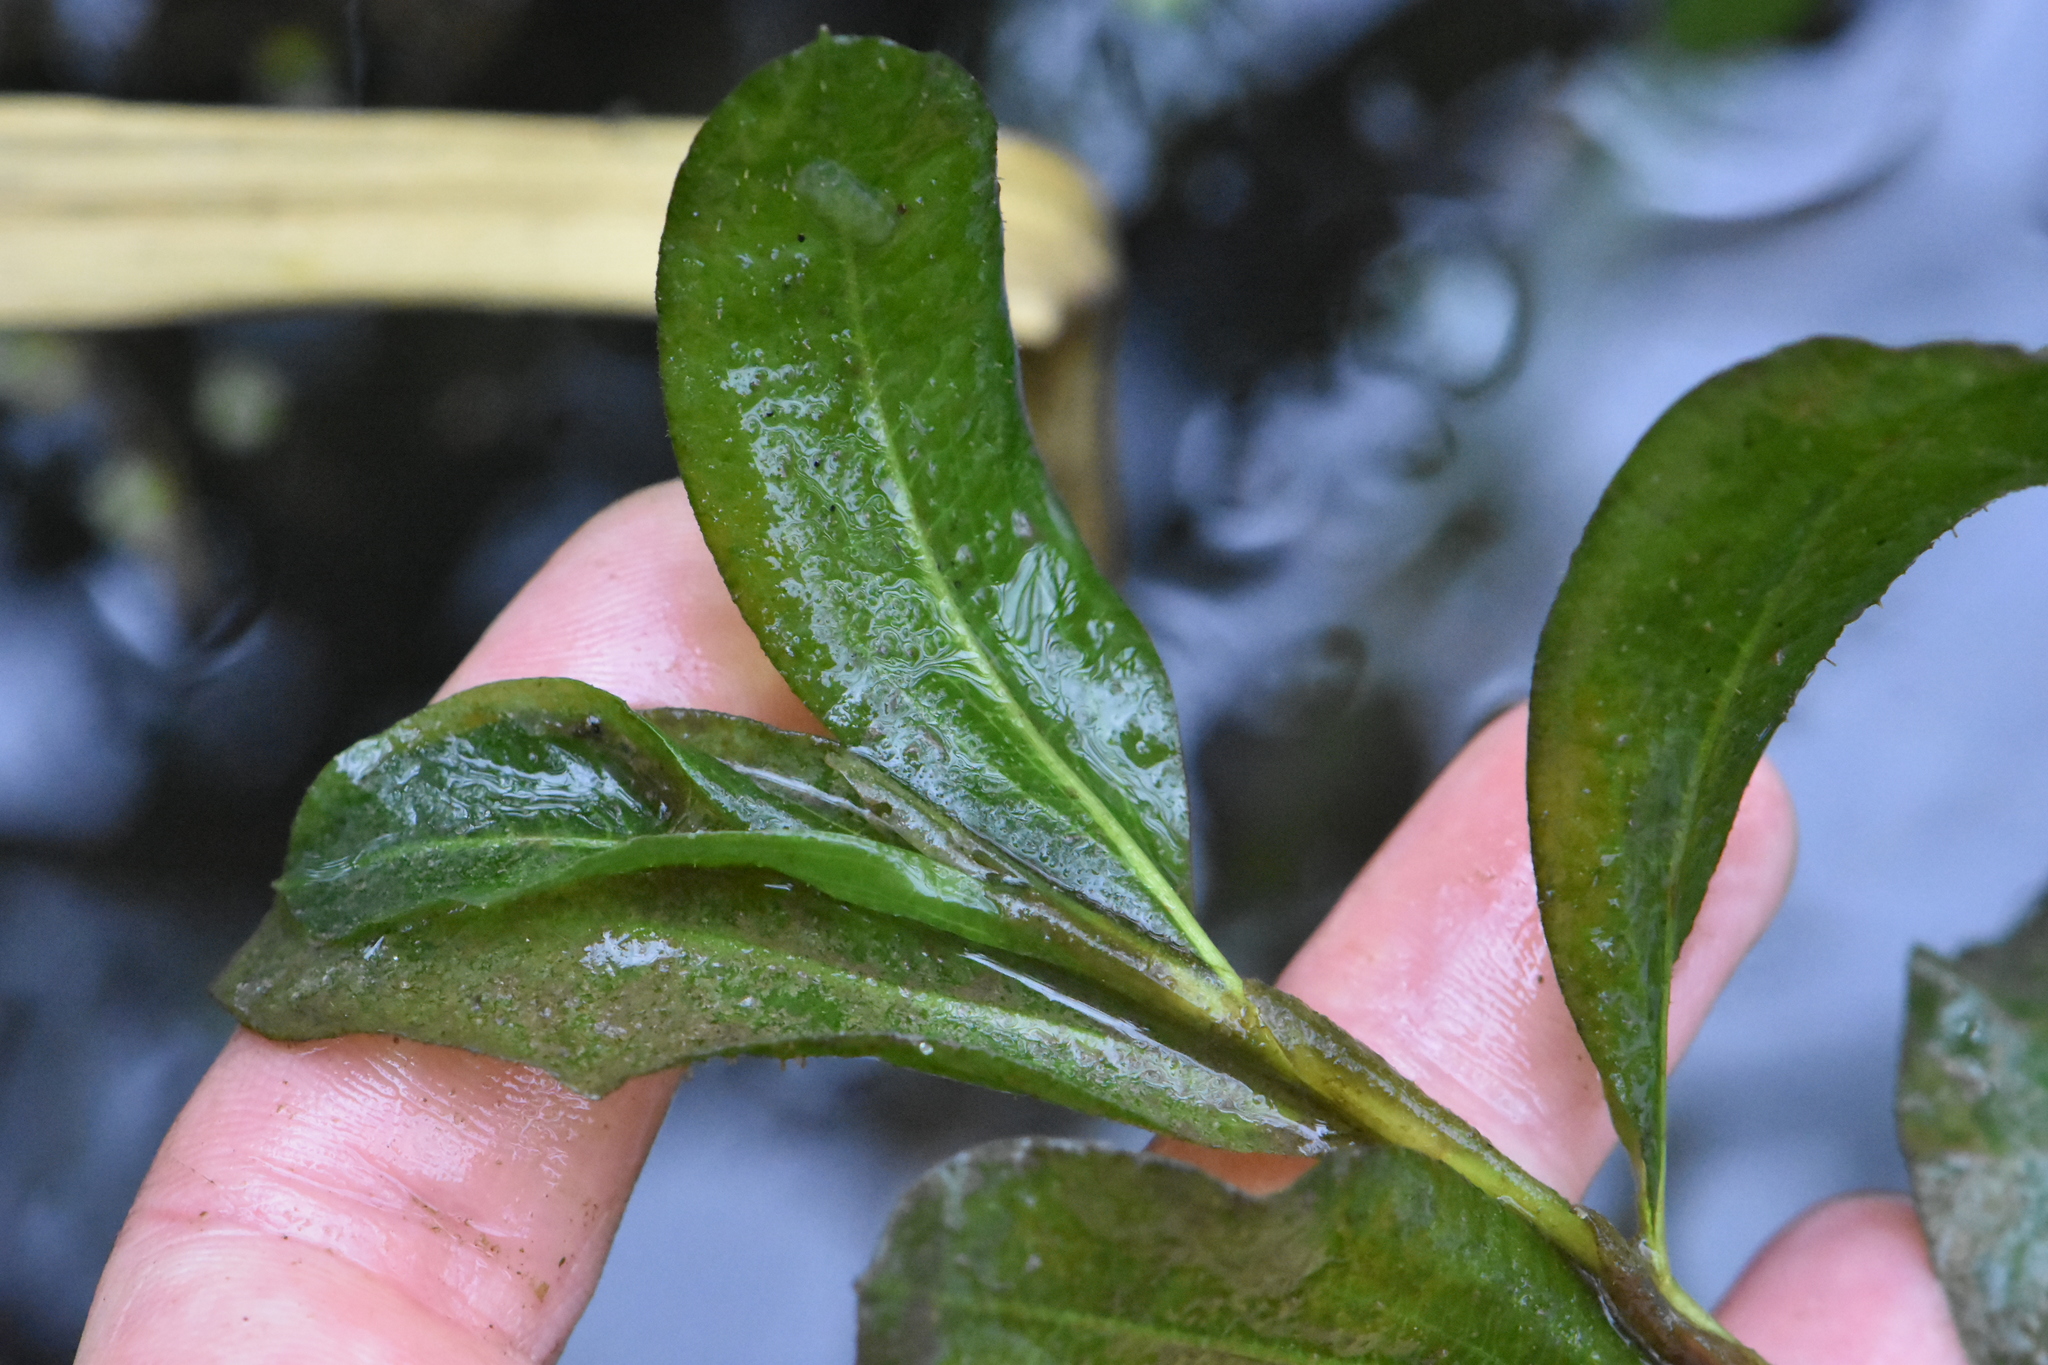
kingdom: Plantae
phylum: Tracheophyta
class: Liliopsida
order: Alismatales
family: Potamogetonaceae
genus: Potamogeton
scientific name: Potamogeton lucens
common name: Shining pondweed
